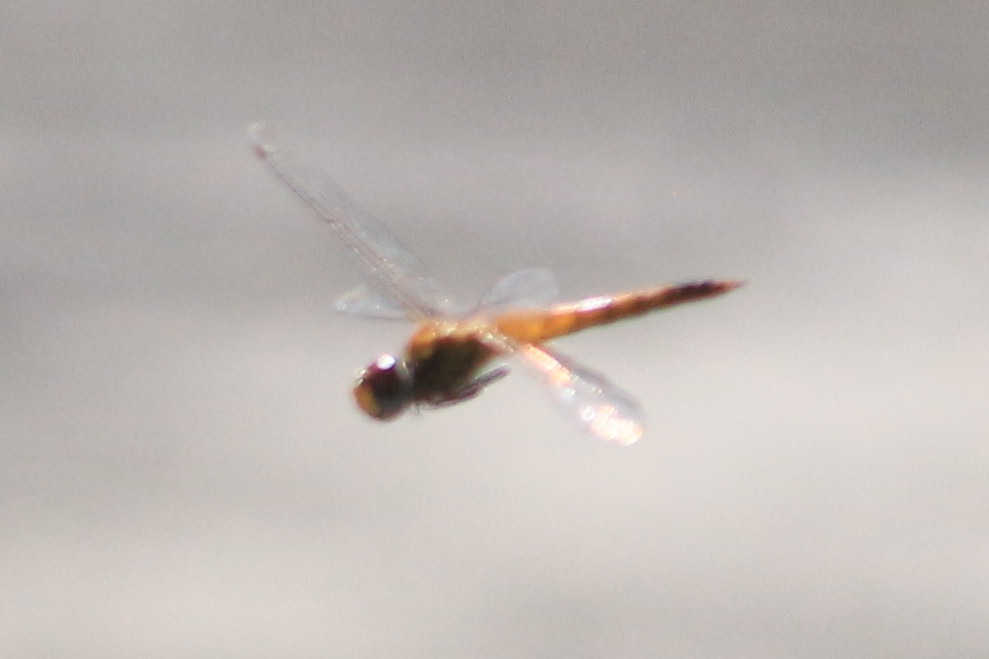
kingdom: Animalia
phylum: Arthropoda
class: Insecta
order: Odonata
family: Libellulidae
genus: Pantala
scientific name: Pantala flavescens
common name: Wandering glider
